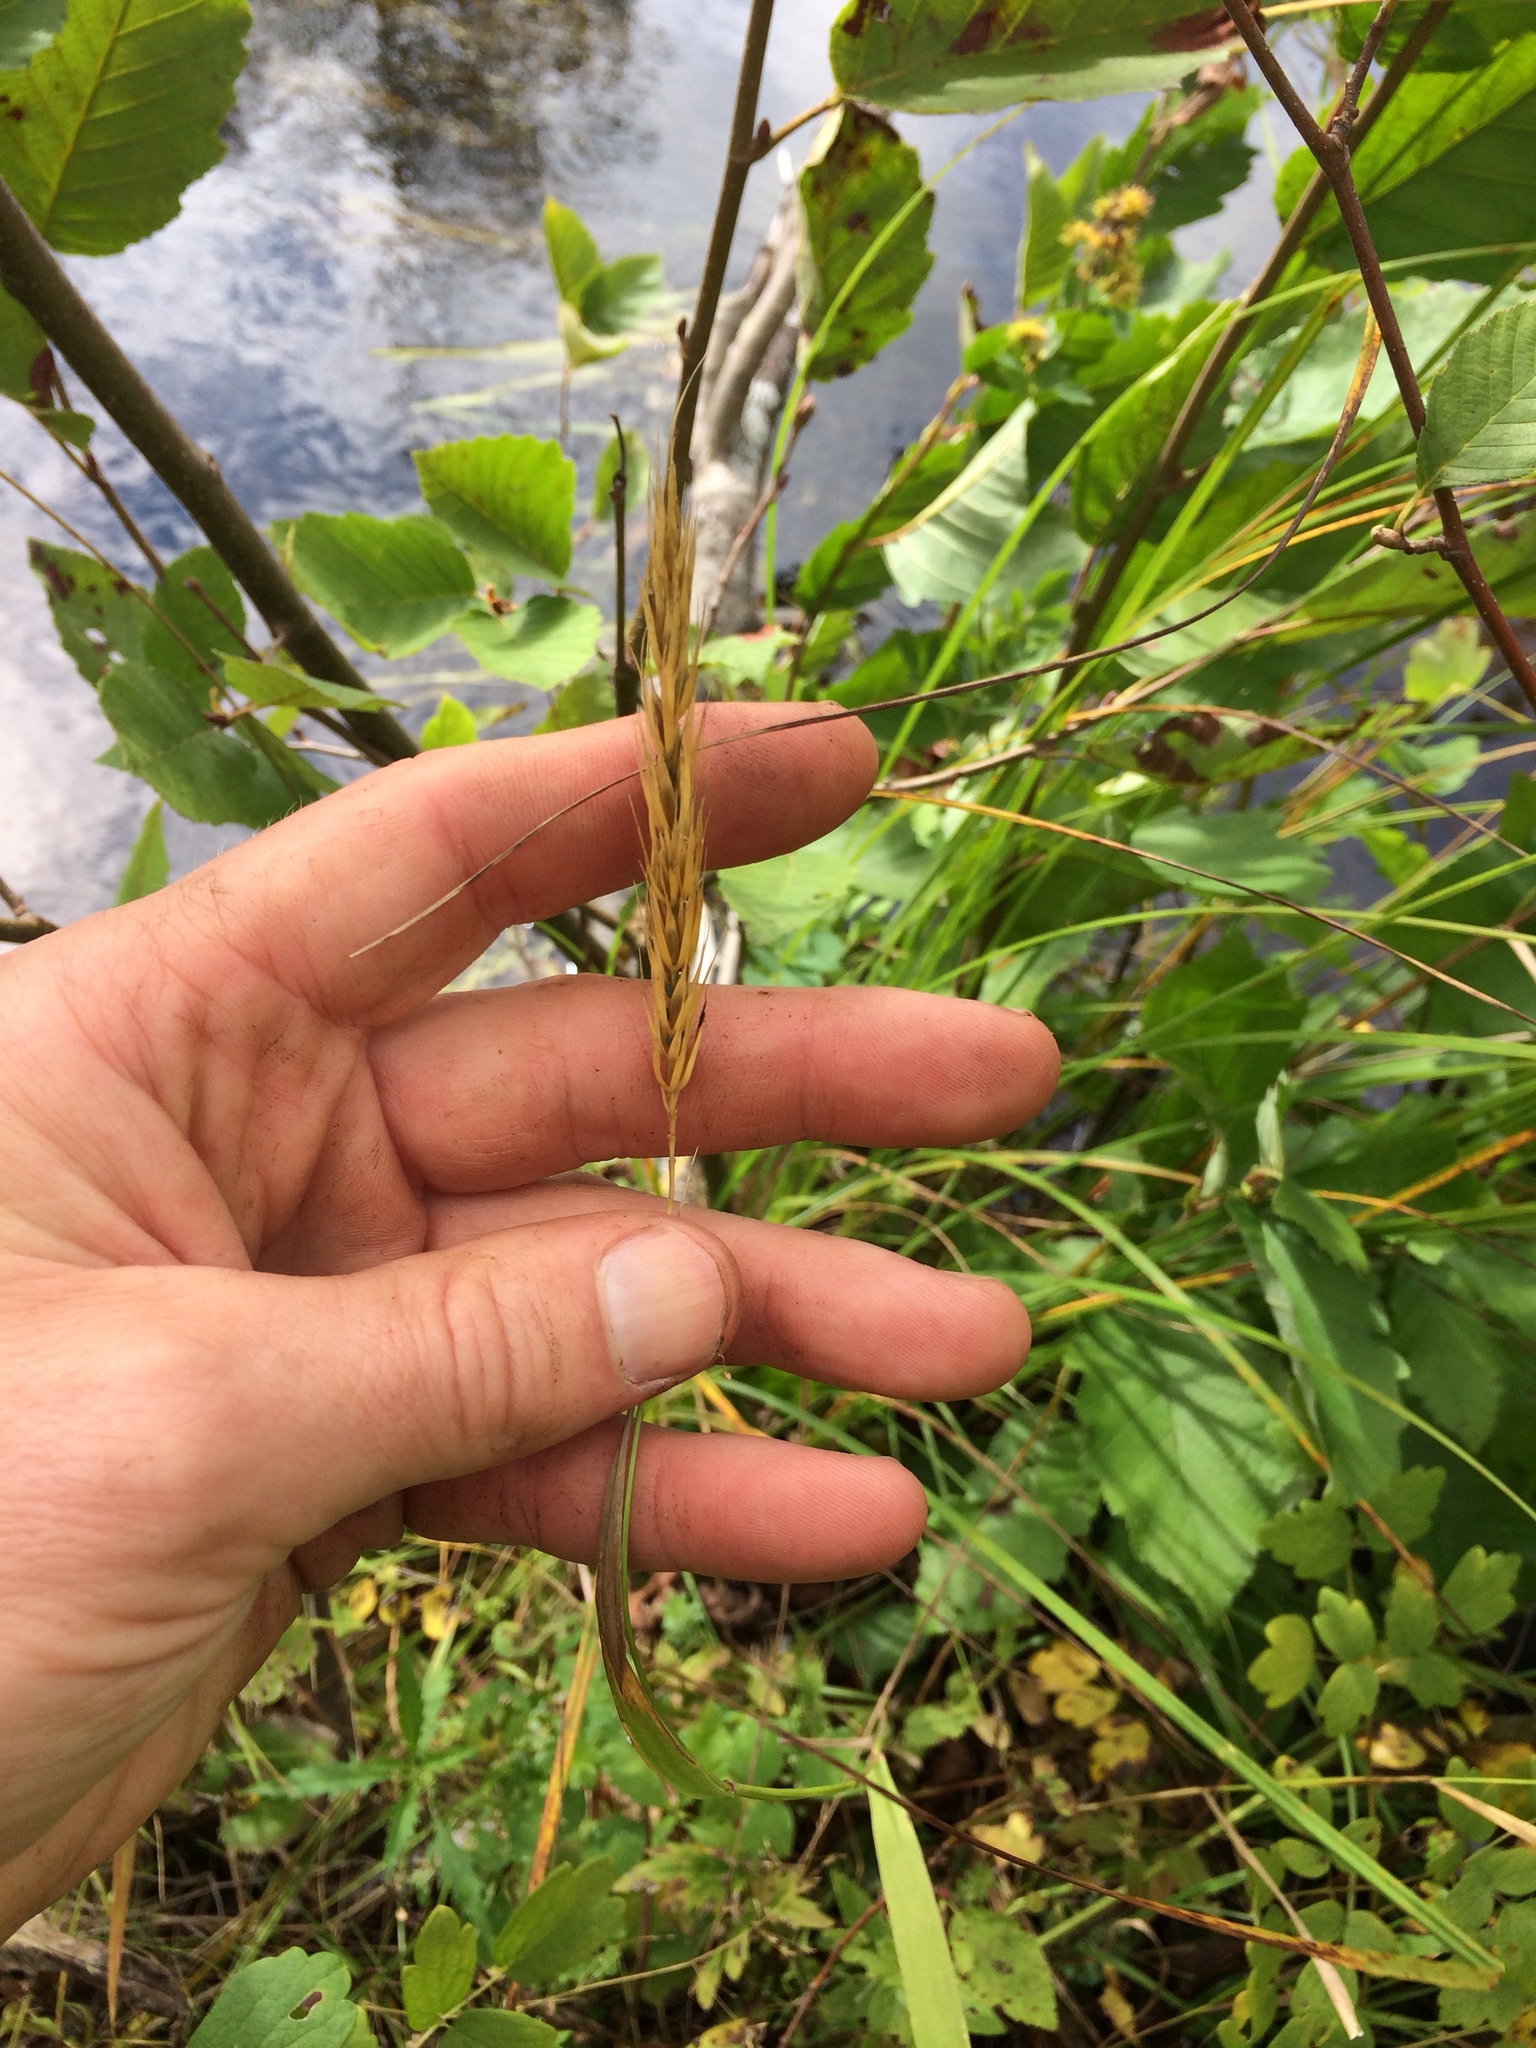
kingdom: Plantae
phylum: Tracheophyta
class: Liliopsida
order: Poales
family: Poaceae
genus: Elymus
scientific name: Elymus virginicus
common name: Common eastern wildrye
